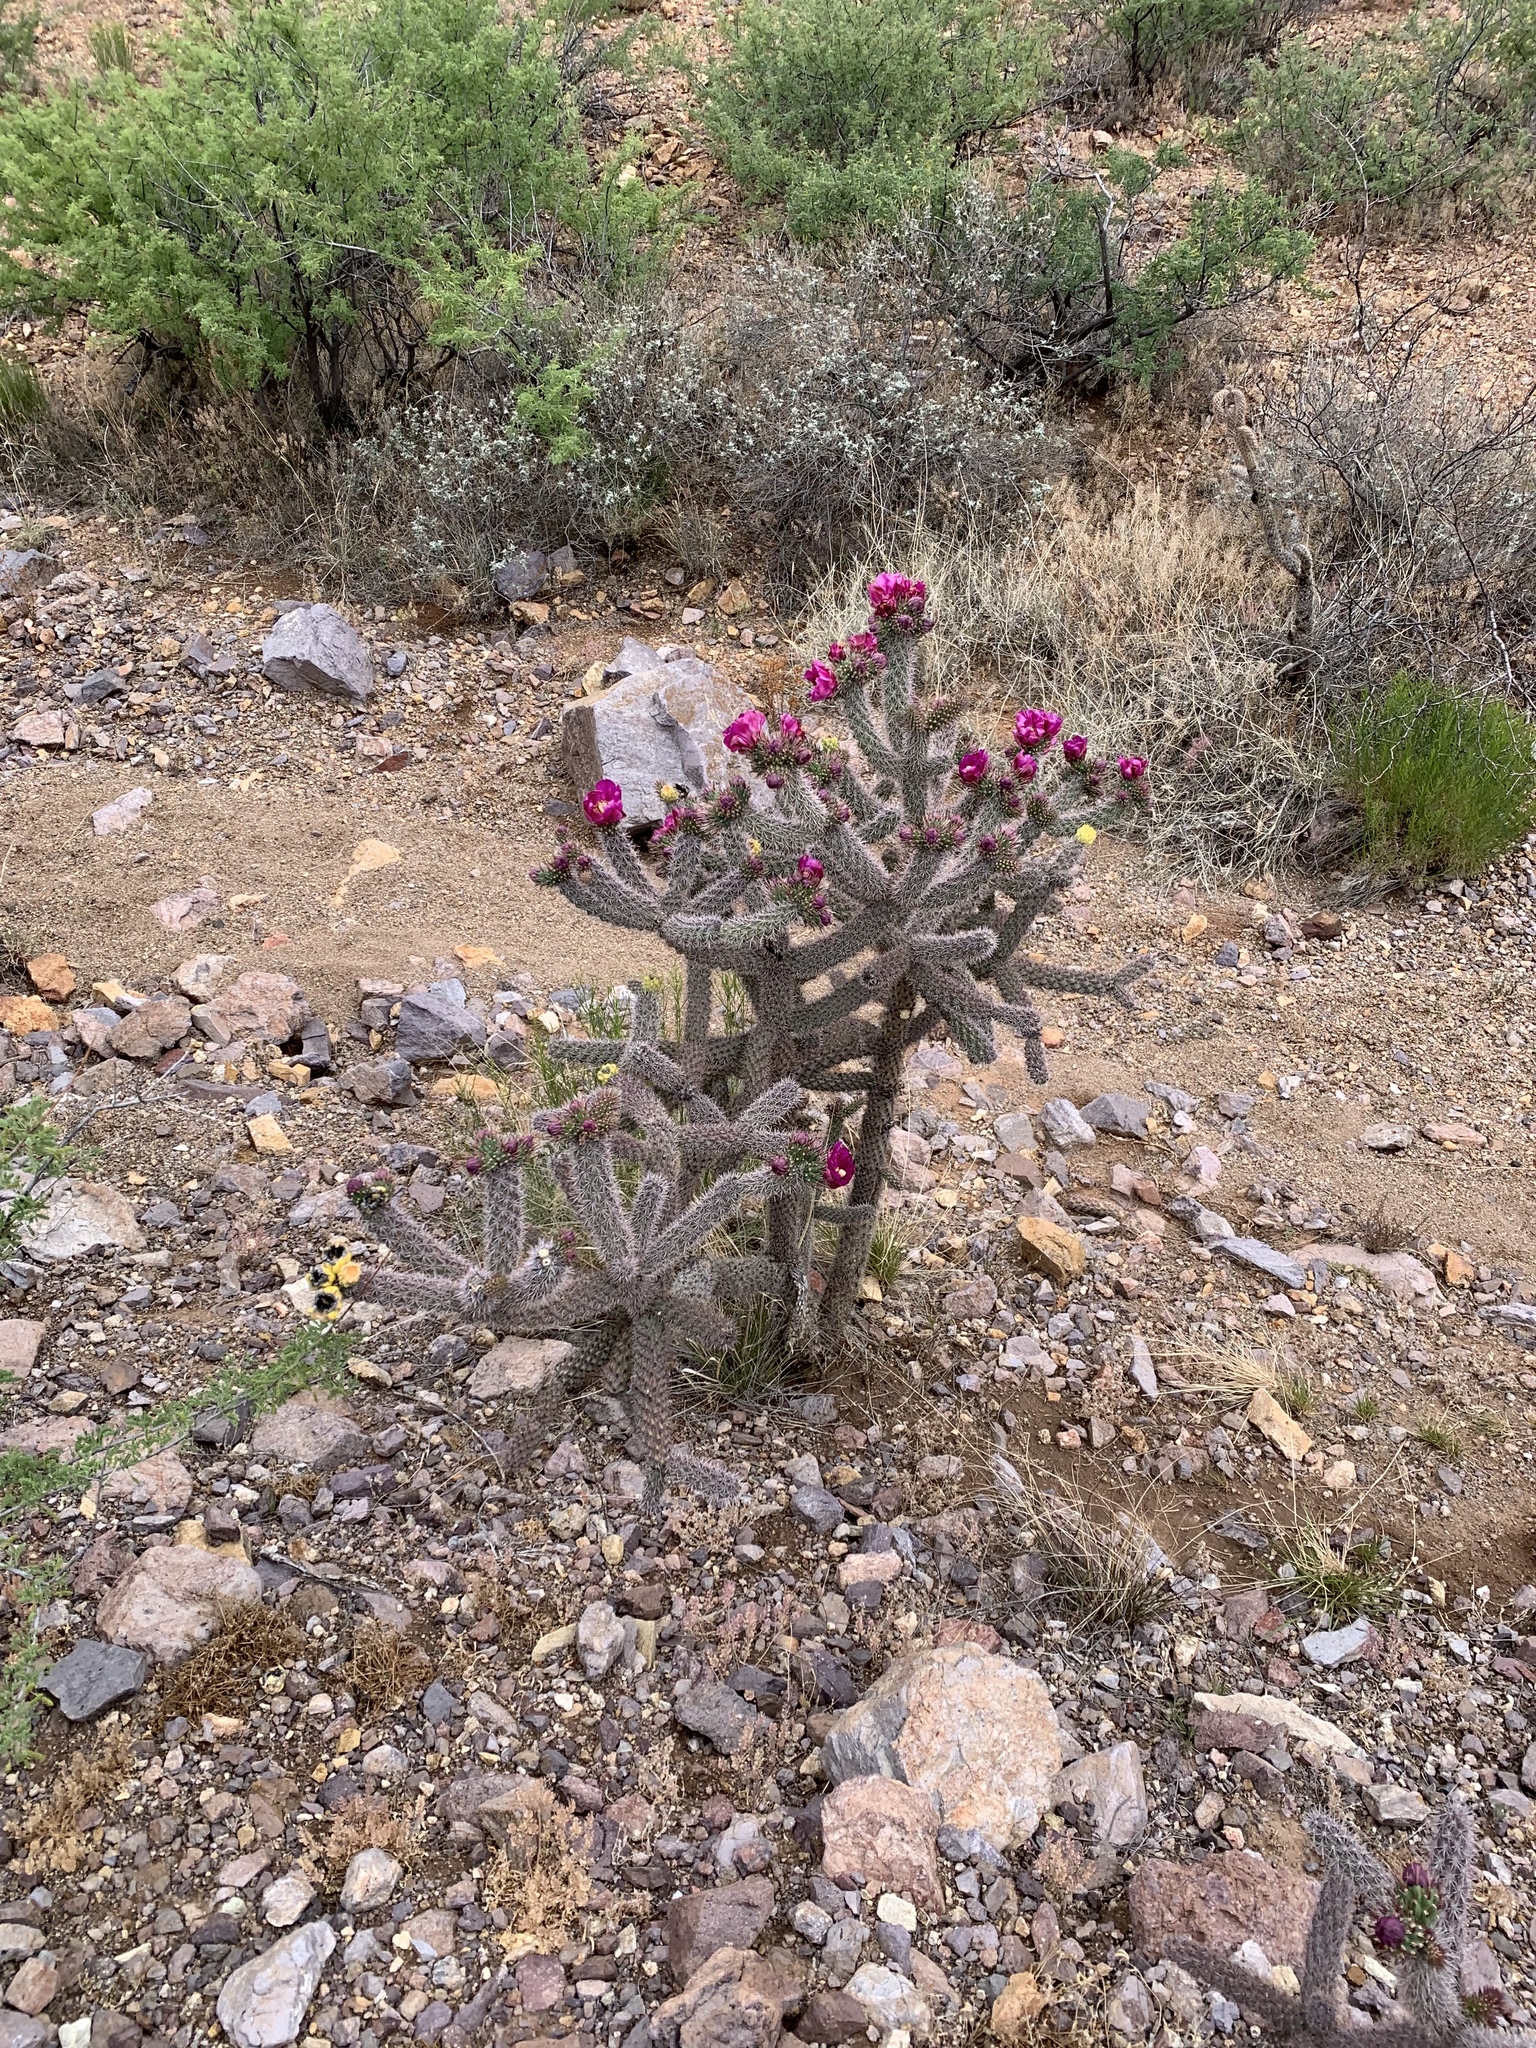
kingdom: Plantae
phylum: Tracheophyta
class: Magnoliopsida
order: Caryophyllales
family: Cactaceae
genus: Cylindropuntia
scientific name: Cylindropuntia imbricata
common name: Candelabrum cactus
